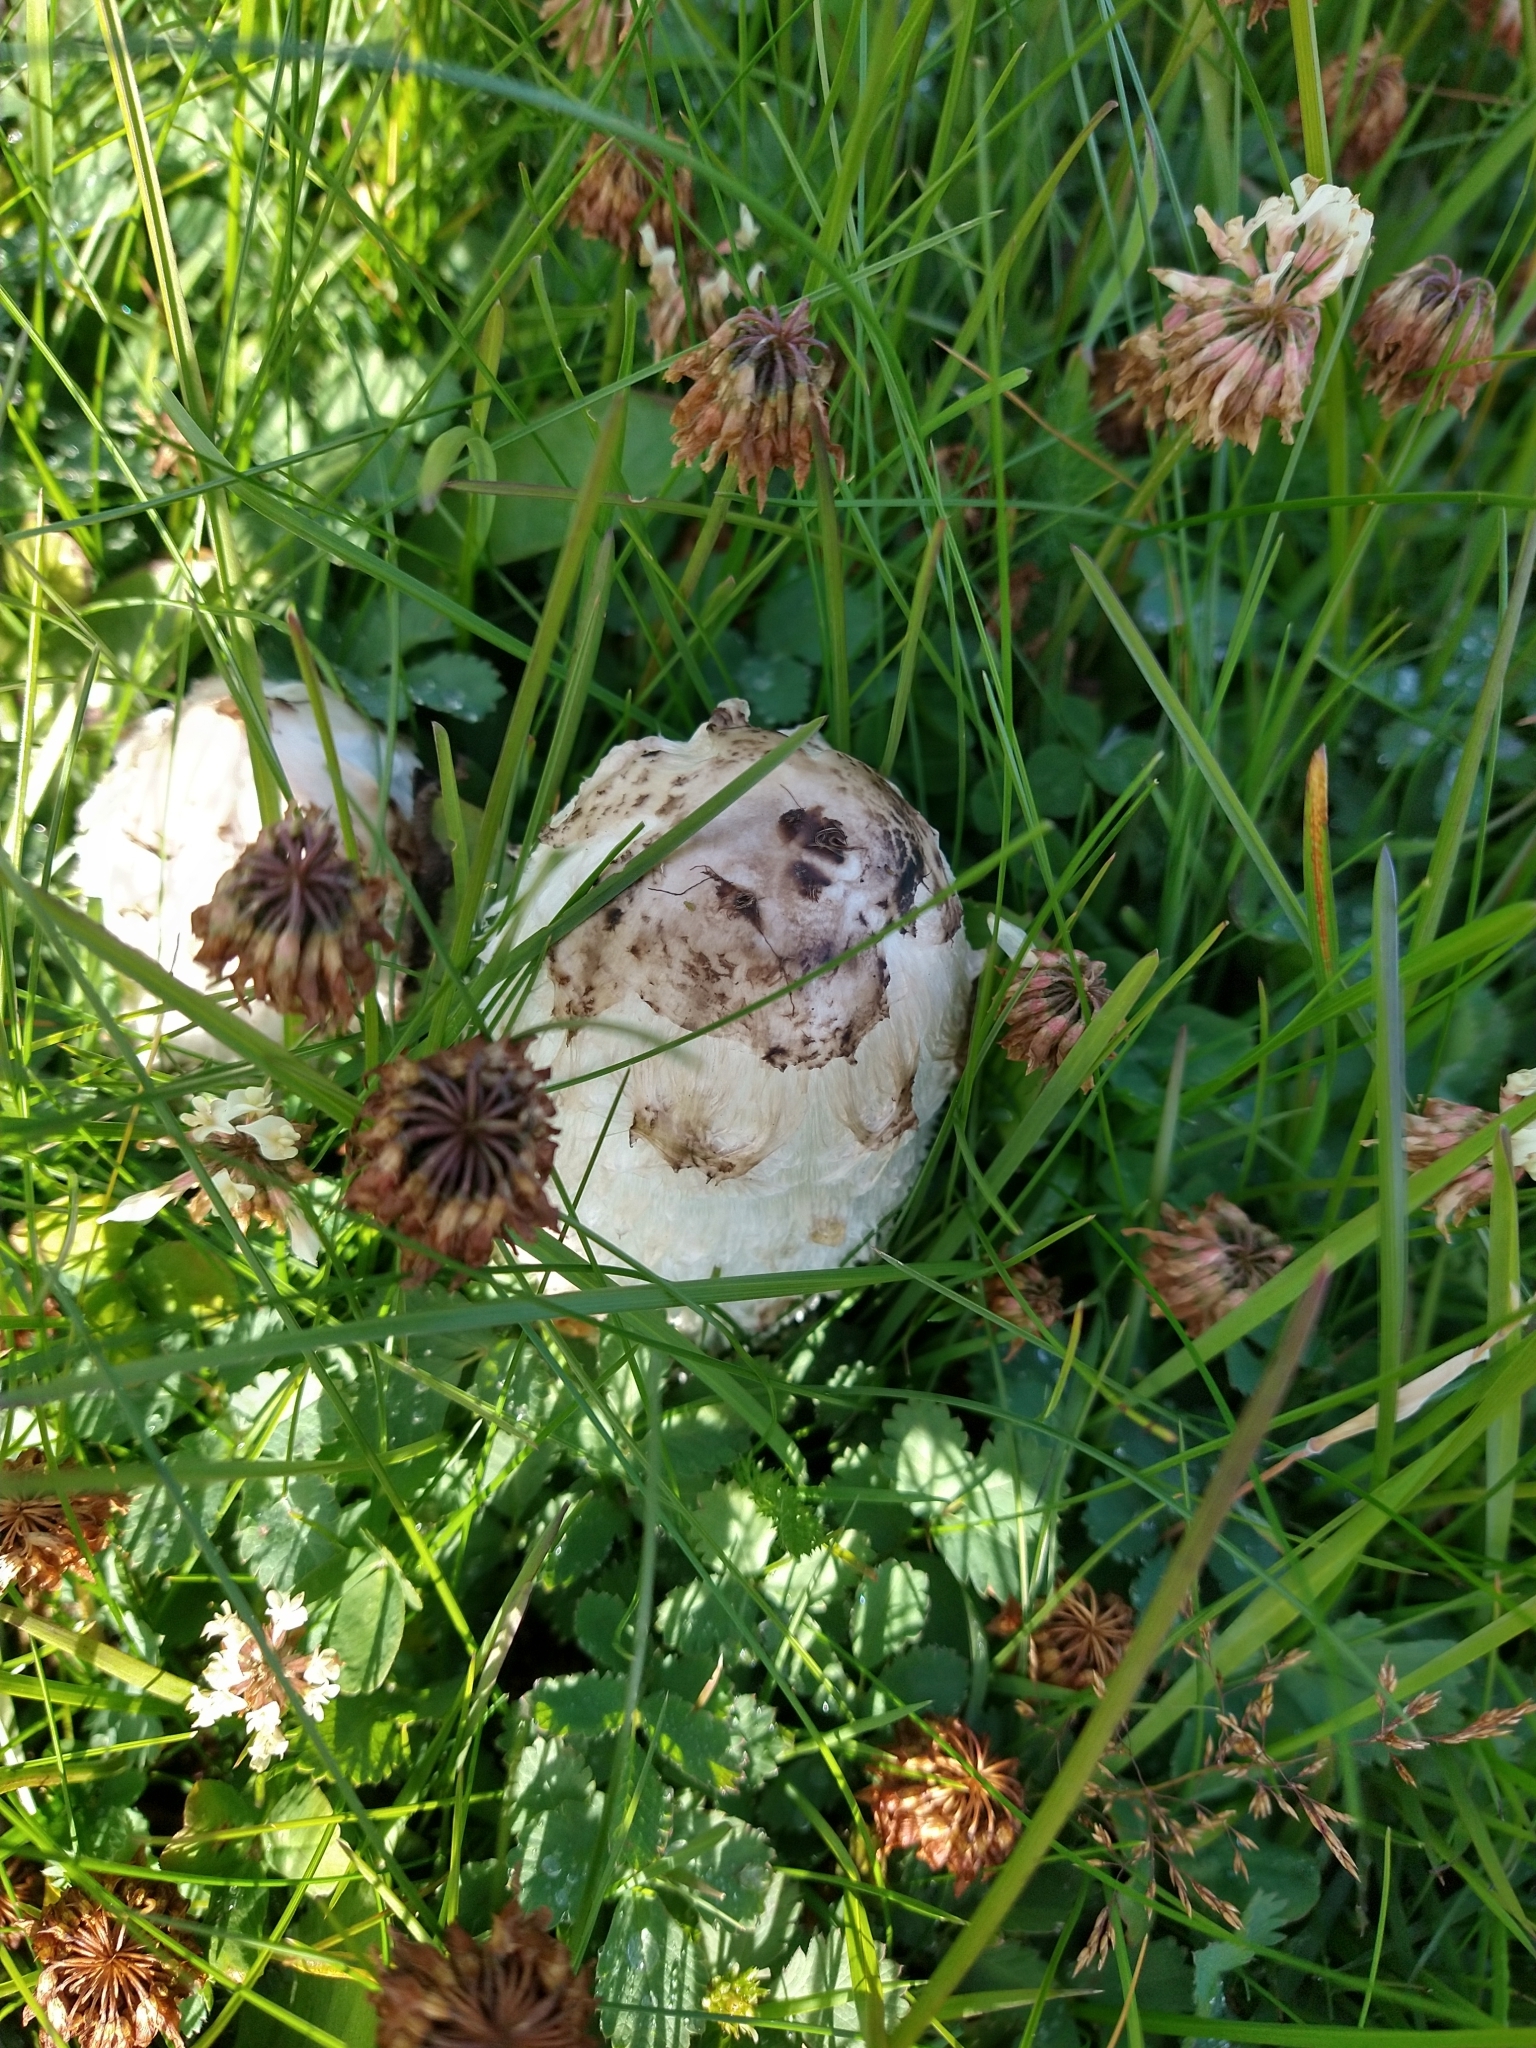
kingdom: Fungi
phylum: Basidiomycota
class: Agaricomycetes
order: Agaricales
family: Agaricaceae
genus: Coprinus
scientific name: Coprinus comatus
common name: Lawyer's wig
